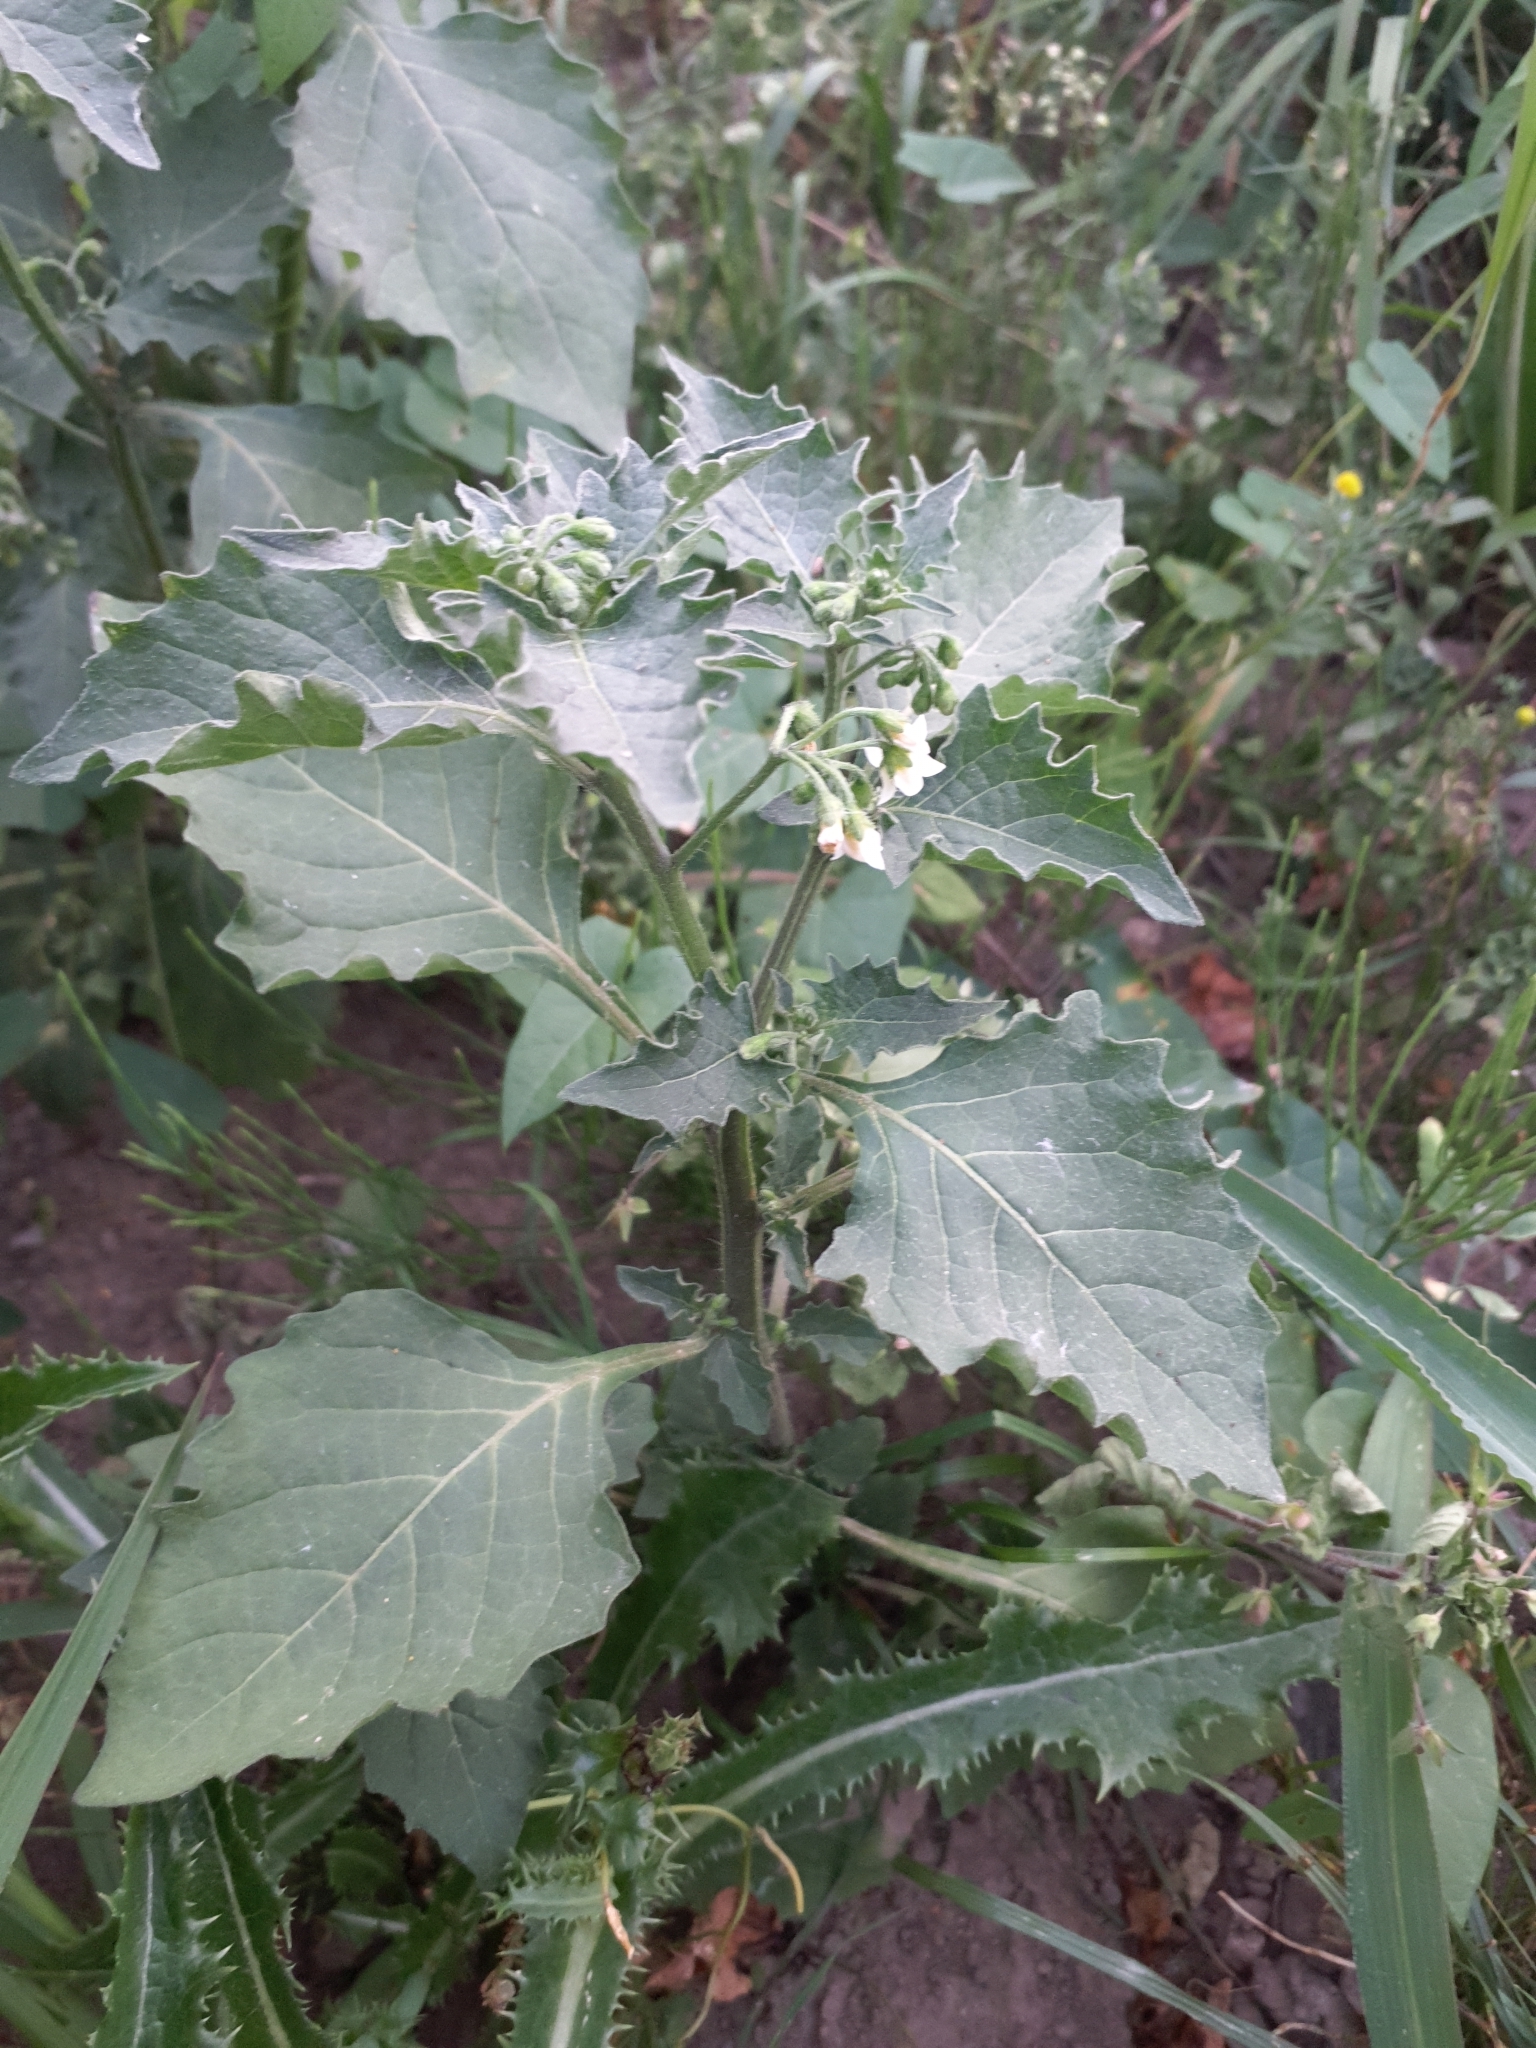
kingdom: Plantae
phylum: Tracheophyta
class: Magnoliopsida
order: Solanales
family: Solanaceae
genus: Solanum
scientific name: Solanum decipiens
